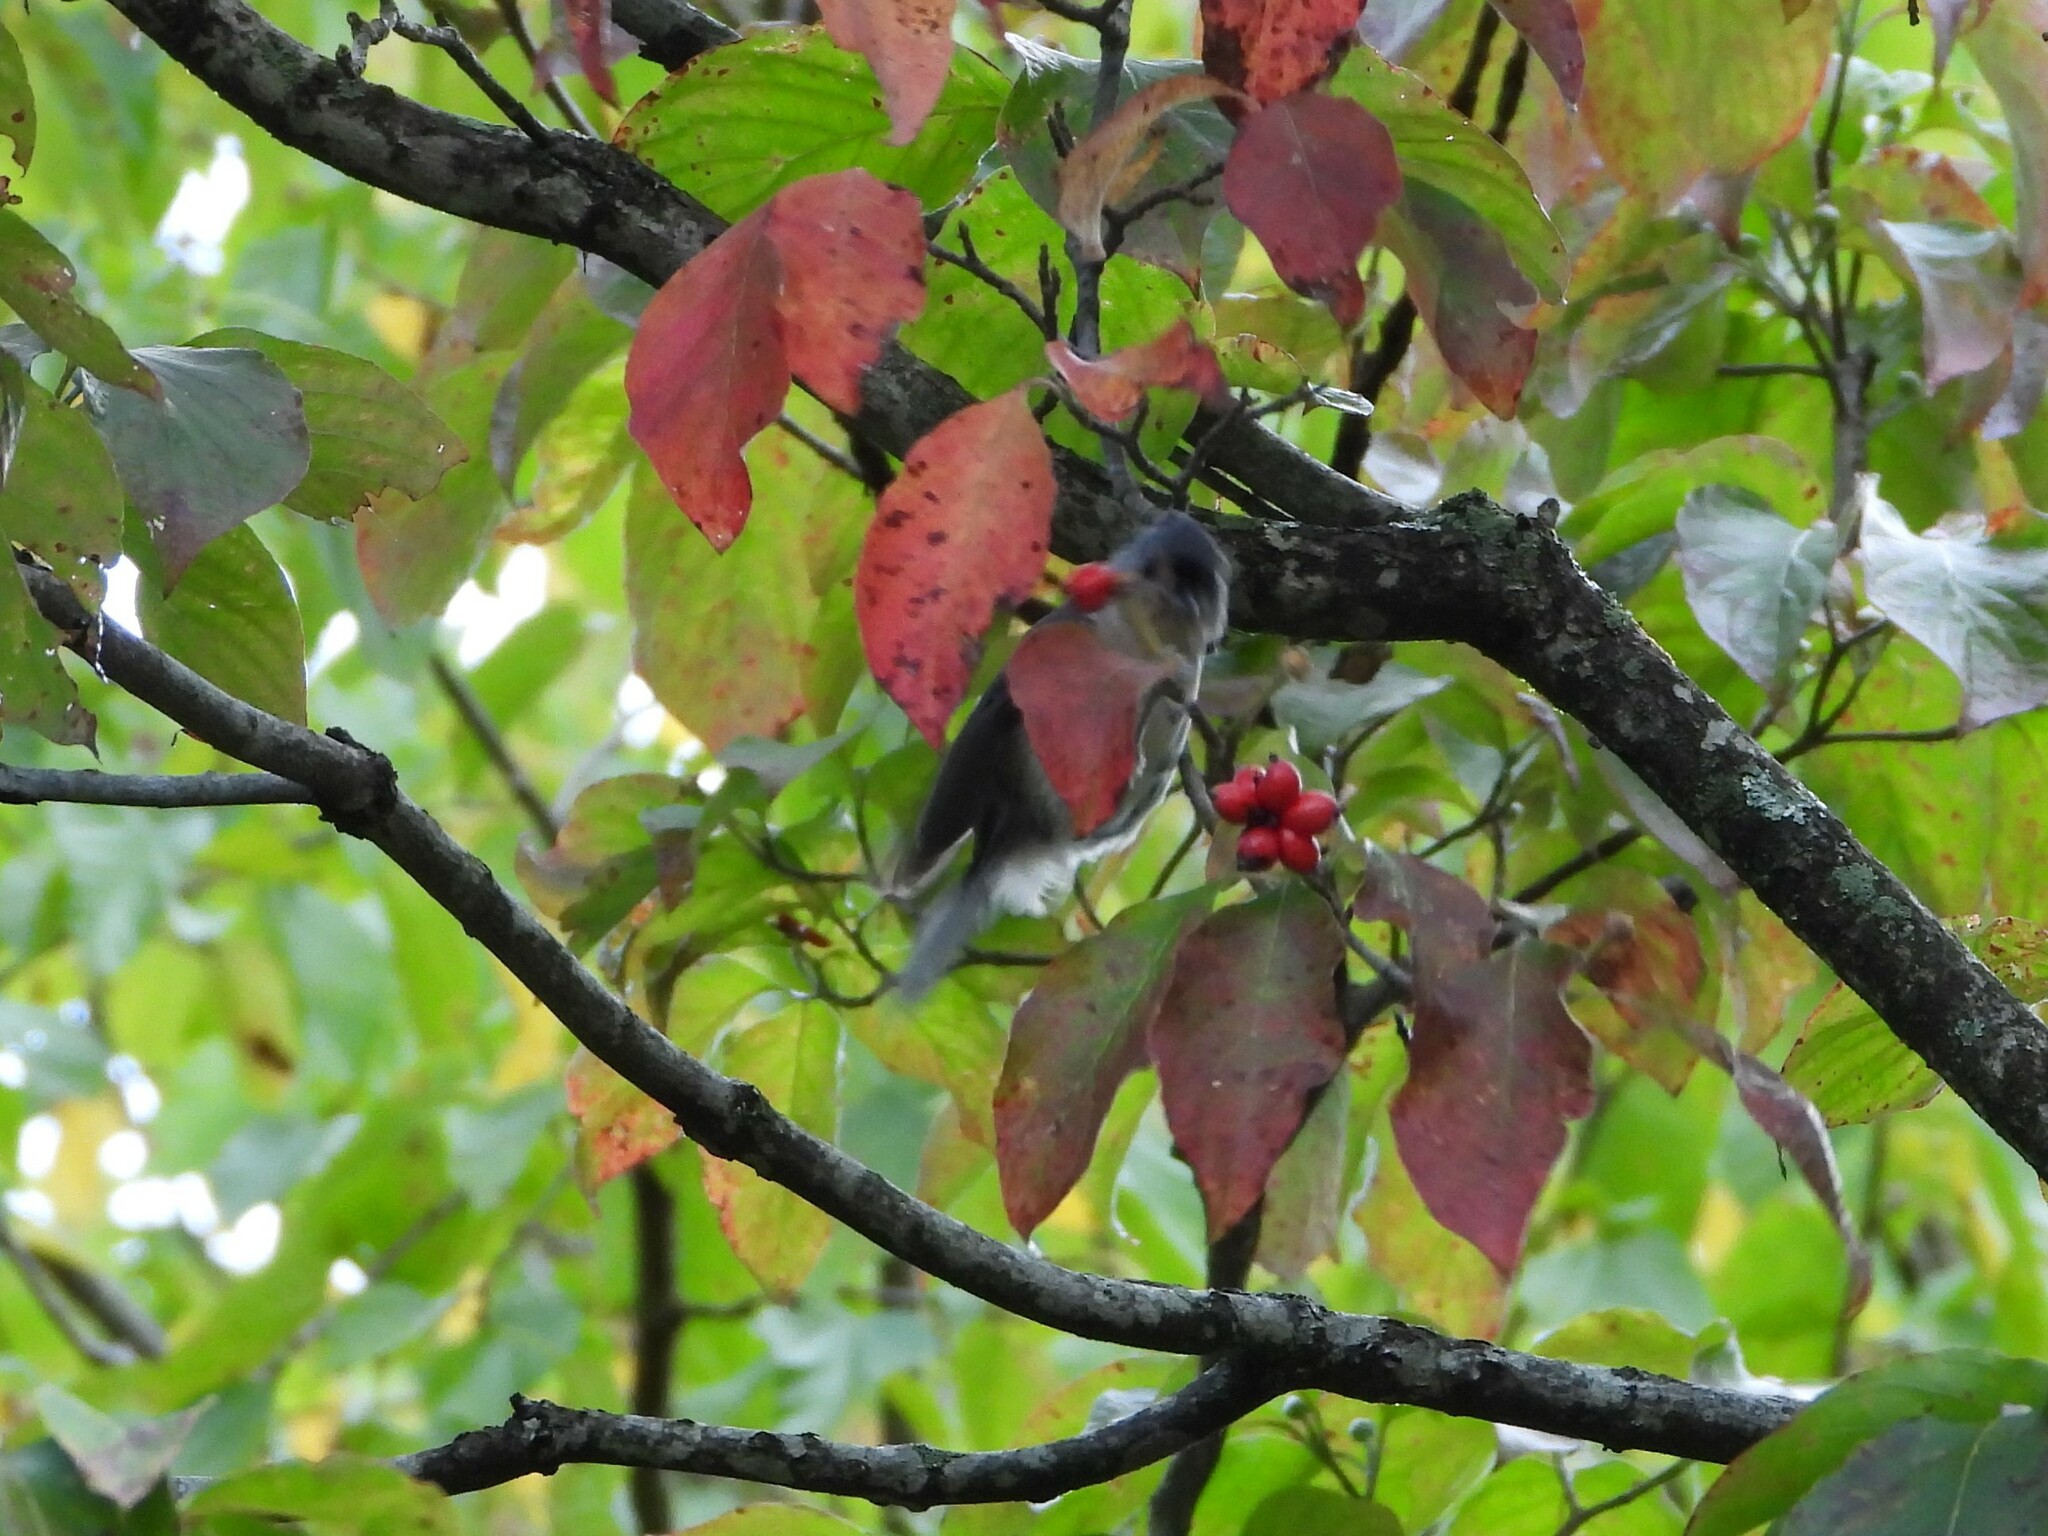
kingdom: Animalia
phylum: Chordata
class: Aves
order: Passeriformes
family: Paridae
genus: Baeolophus
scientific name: Baeolophus bicolor
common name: Tufted titmouse
